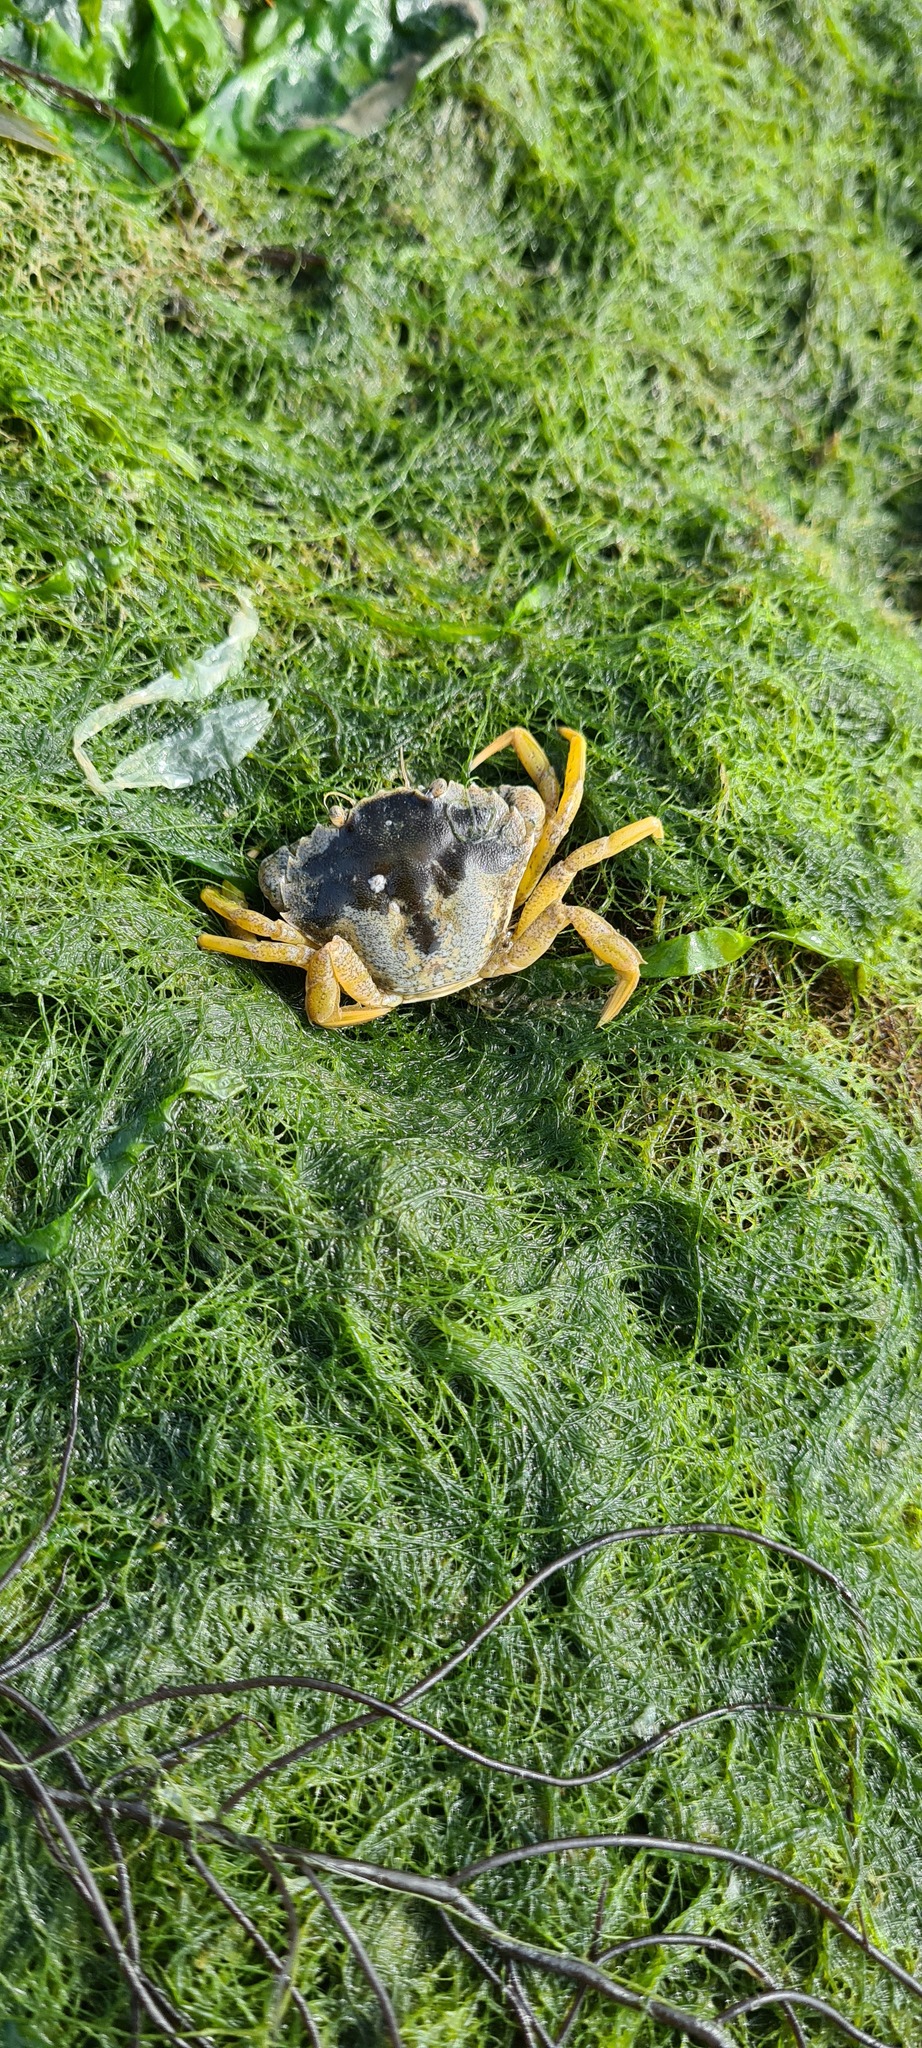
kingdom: Animalia
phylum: Arthropoda
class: Malacostraca
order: Decapoda
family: Carcinidae
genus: Carcinus
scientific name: Carcinus maenas
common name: European green crab
